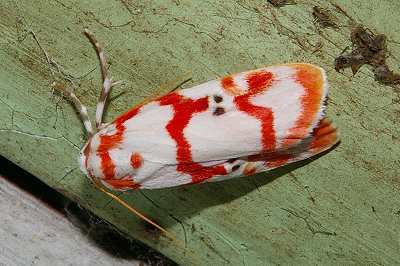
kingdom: Animalia
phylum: Arthropoda
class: Insecta
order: Lepidoptera
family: Erebidae
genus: Cyana
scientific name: Cyana hamata
